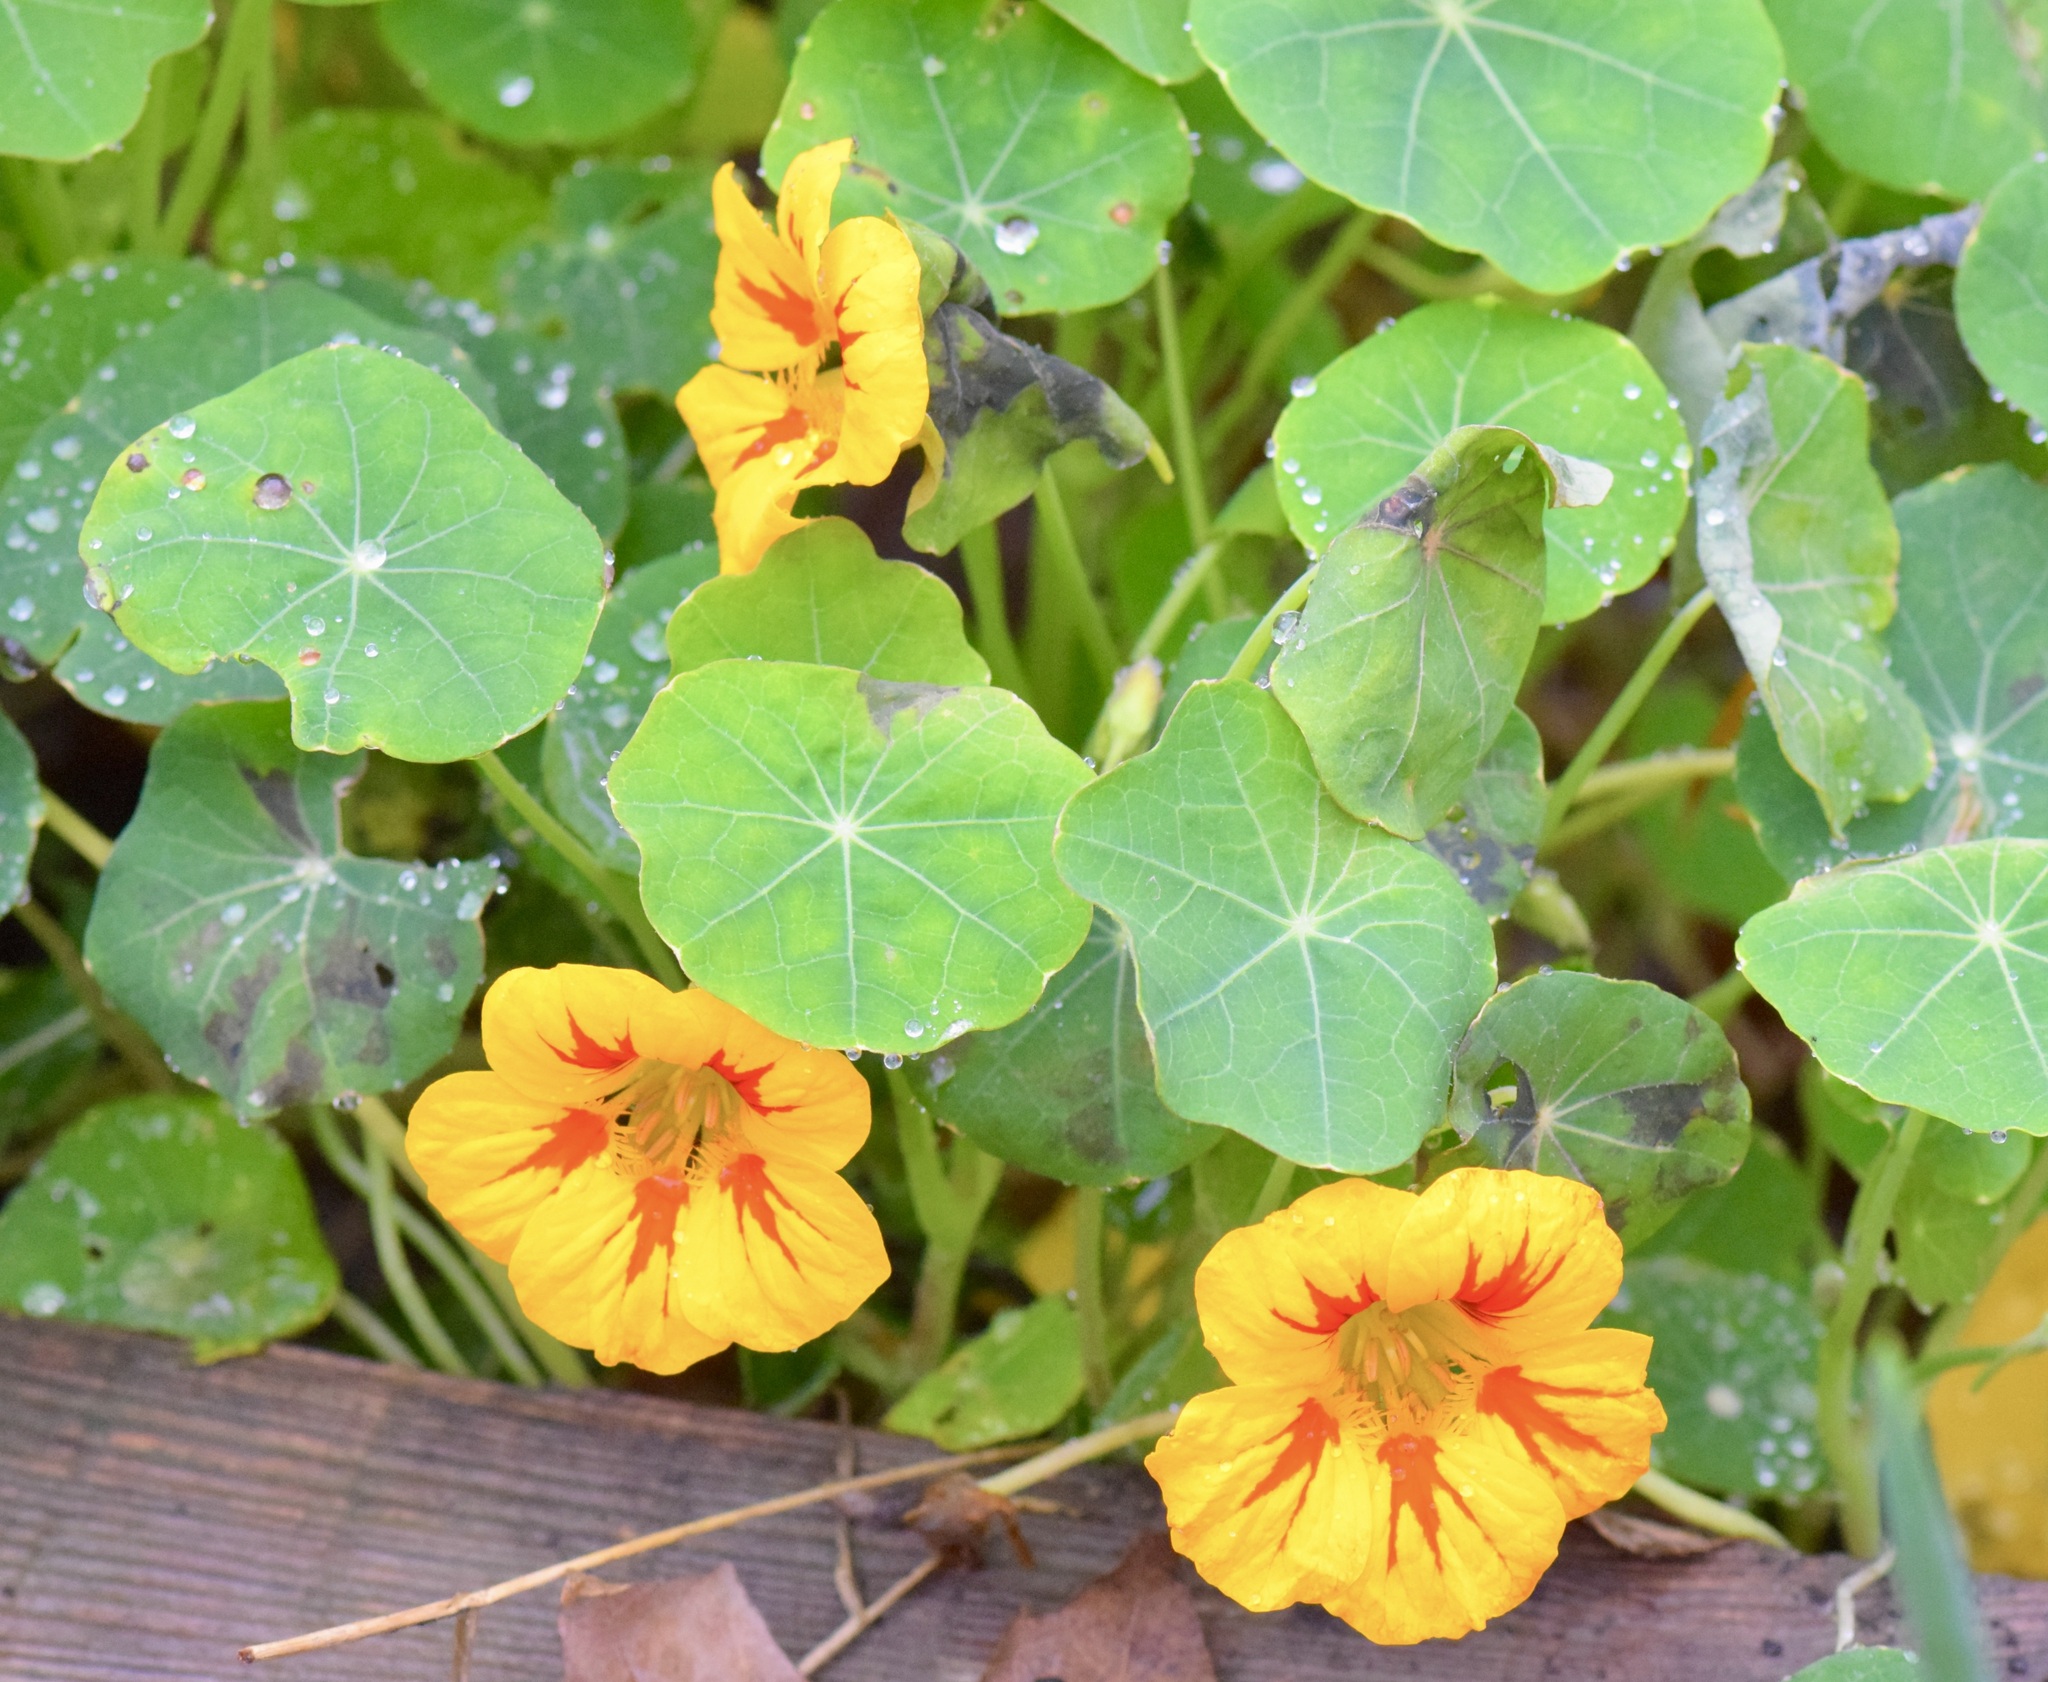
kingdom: Plantae
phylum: Tracheophyta
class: Magnoliopsida
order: Brassicales
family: Tropaeolaceae
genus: Tropaeolum
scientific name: Tropaeolum majus
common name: Nasturtium
